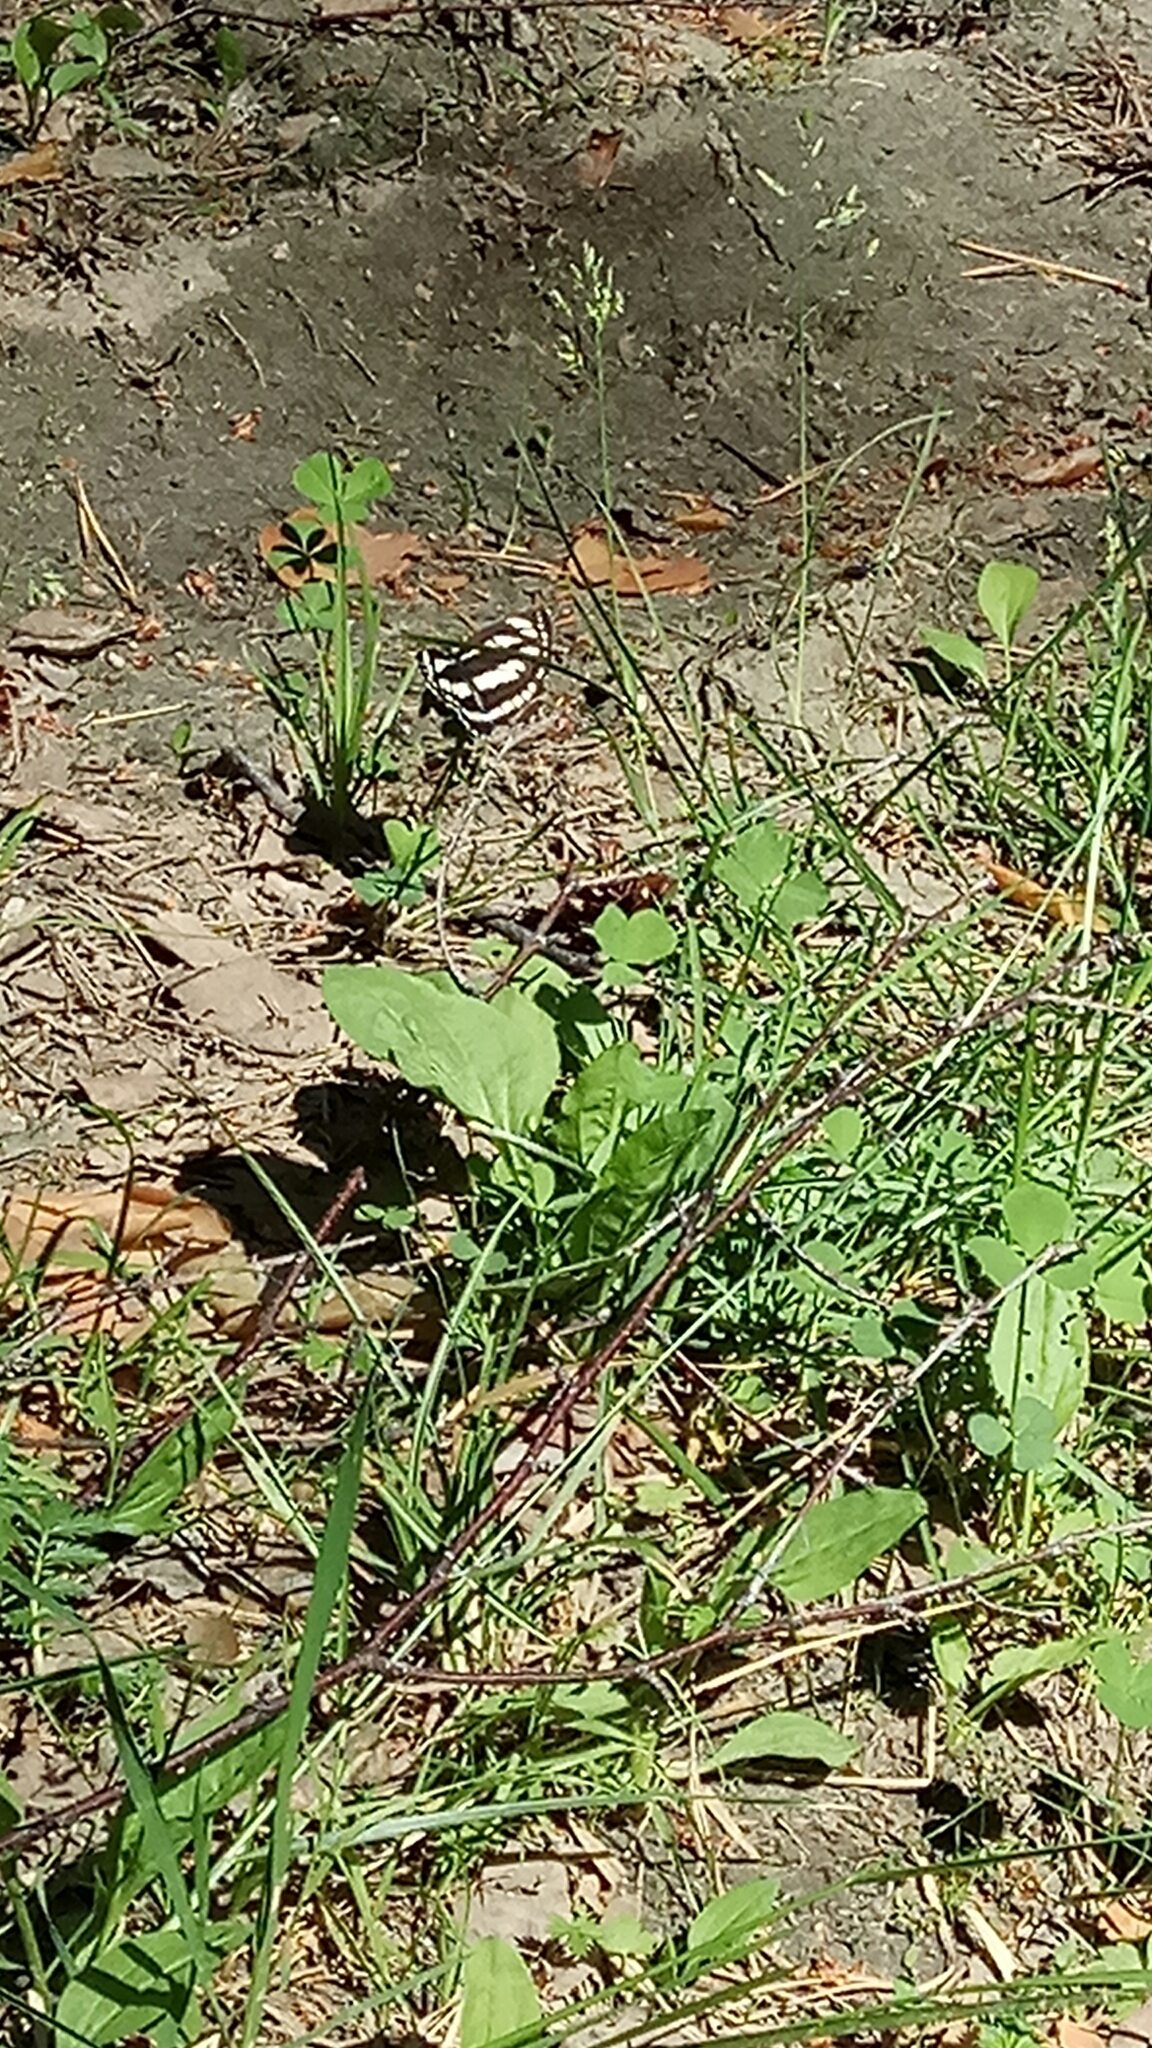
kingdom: Animalia
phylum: Arthropoda
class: Insecta
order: Lepidoptera
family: Nymphalidae
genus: Neptis
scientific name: Neptis sappho
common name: Common glider
